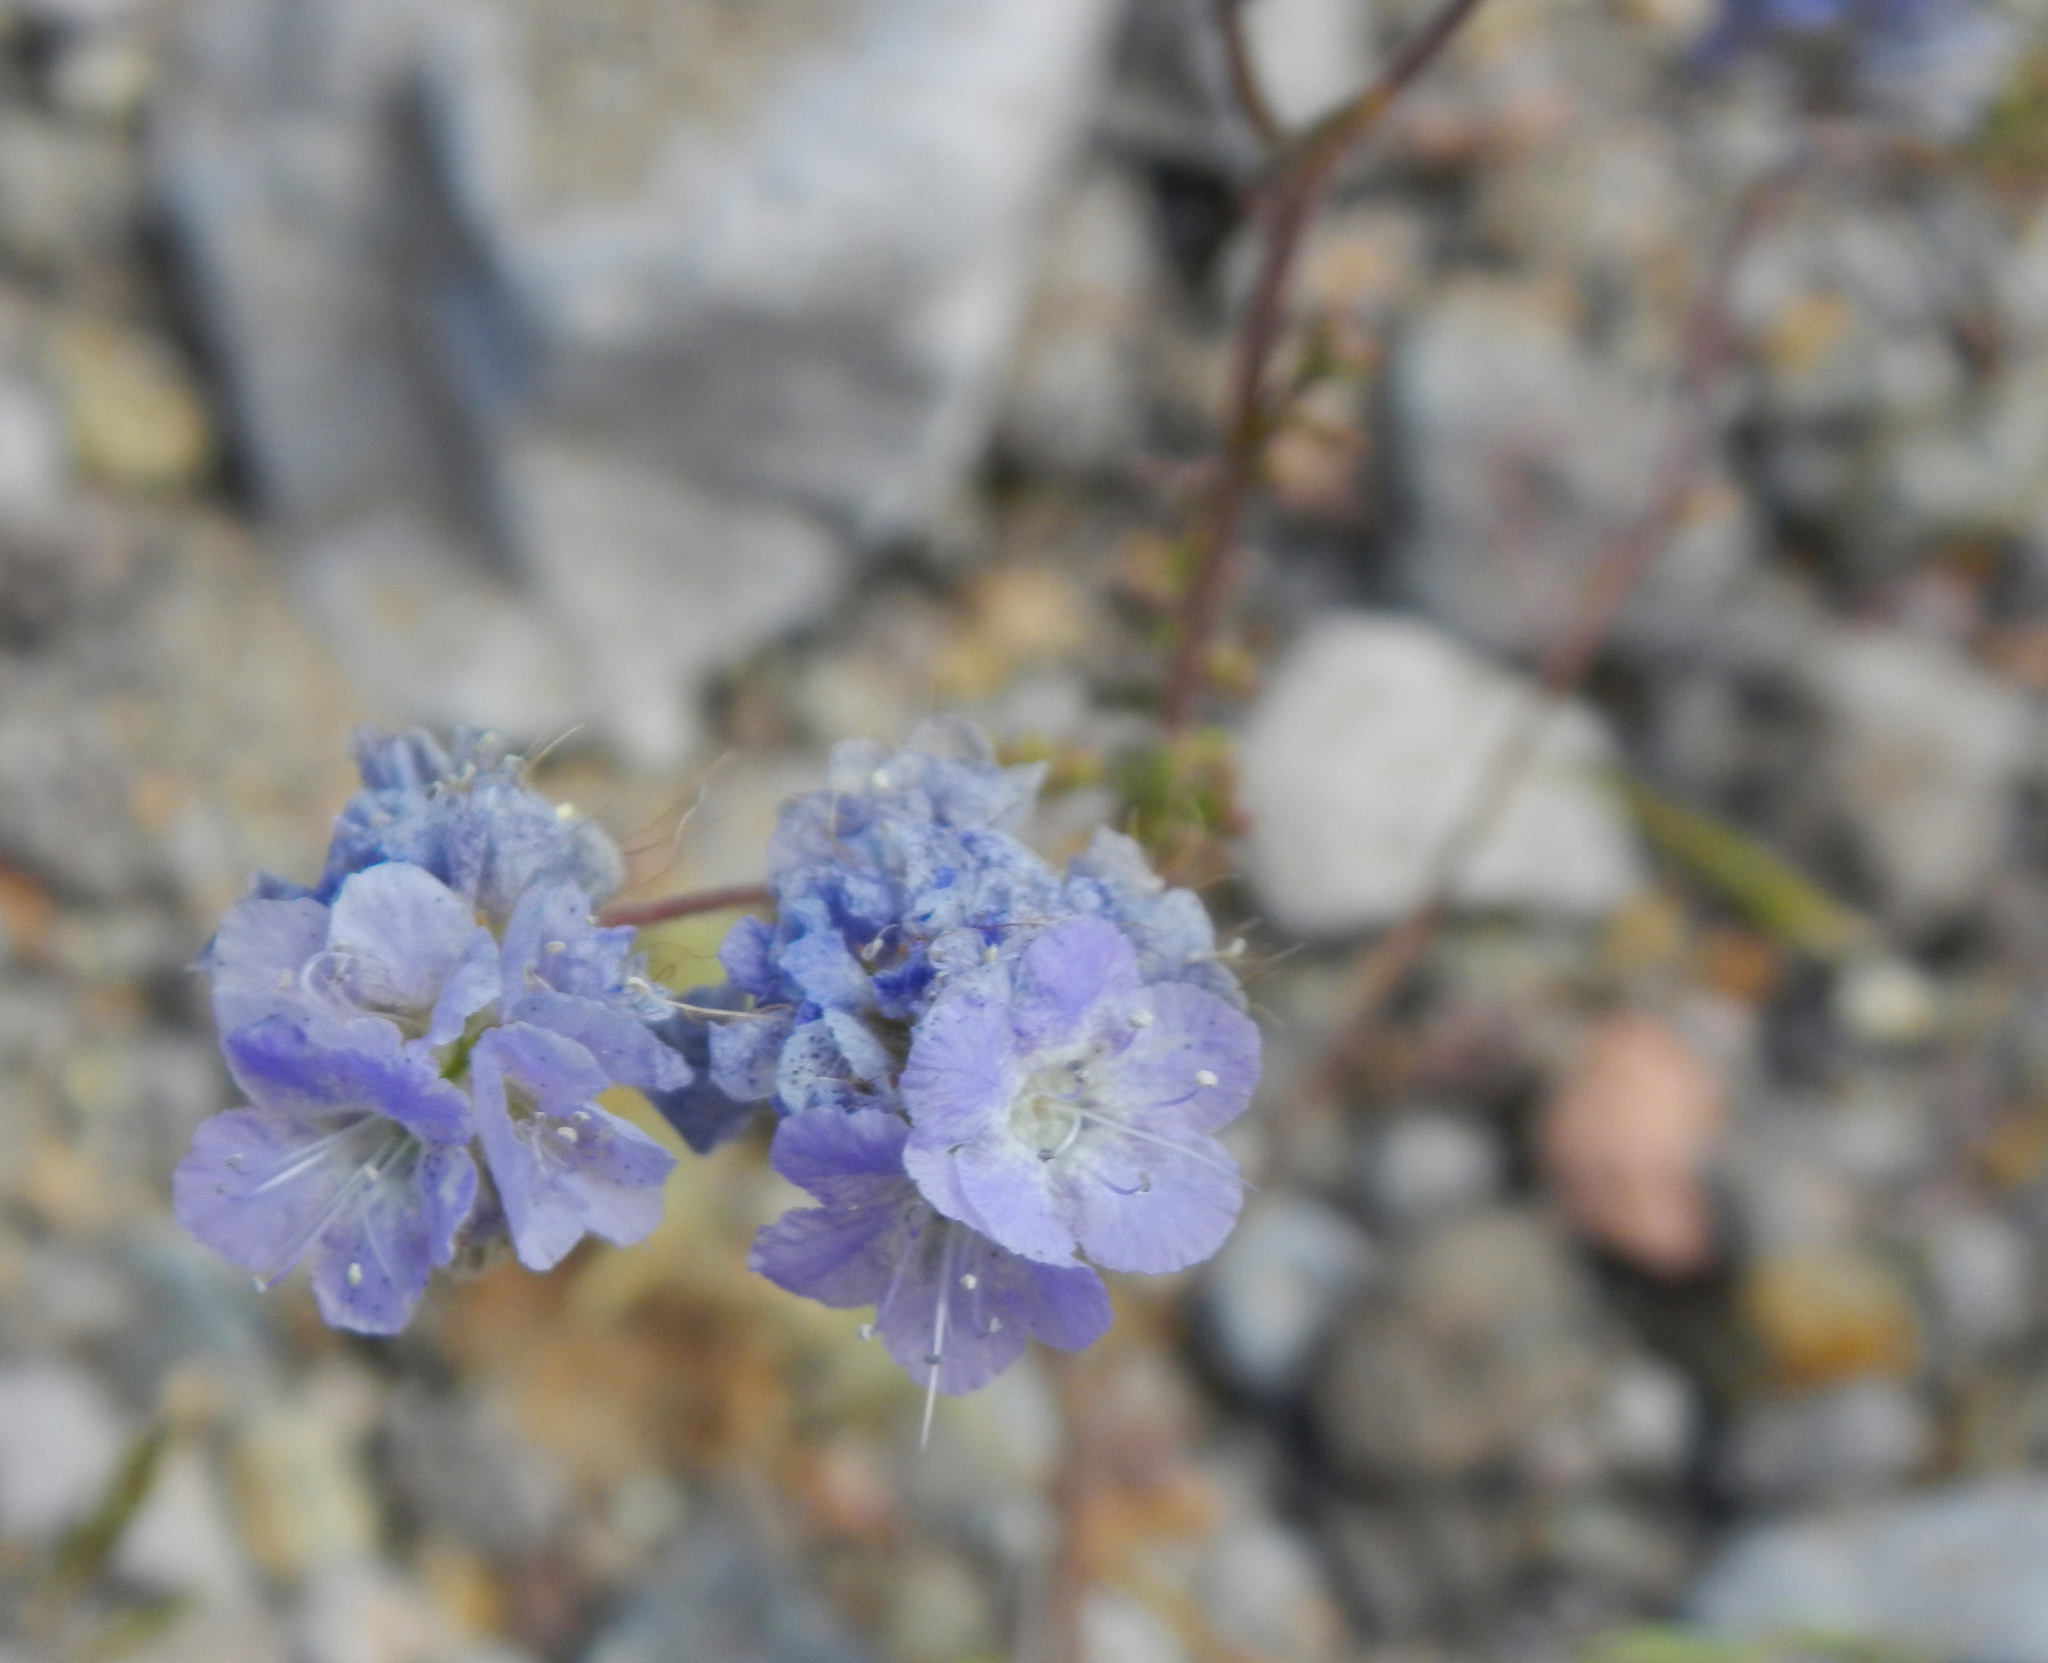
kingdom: Plantae
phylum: Tracheophyta
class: Magnoliopsida
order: Boraginales
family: Hydrophyllaceae
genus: Phacelia
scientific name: Phacelia distans
